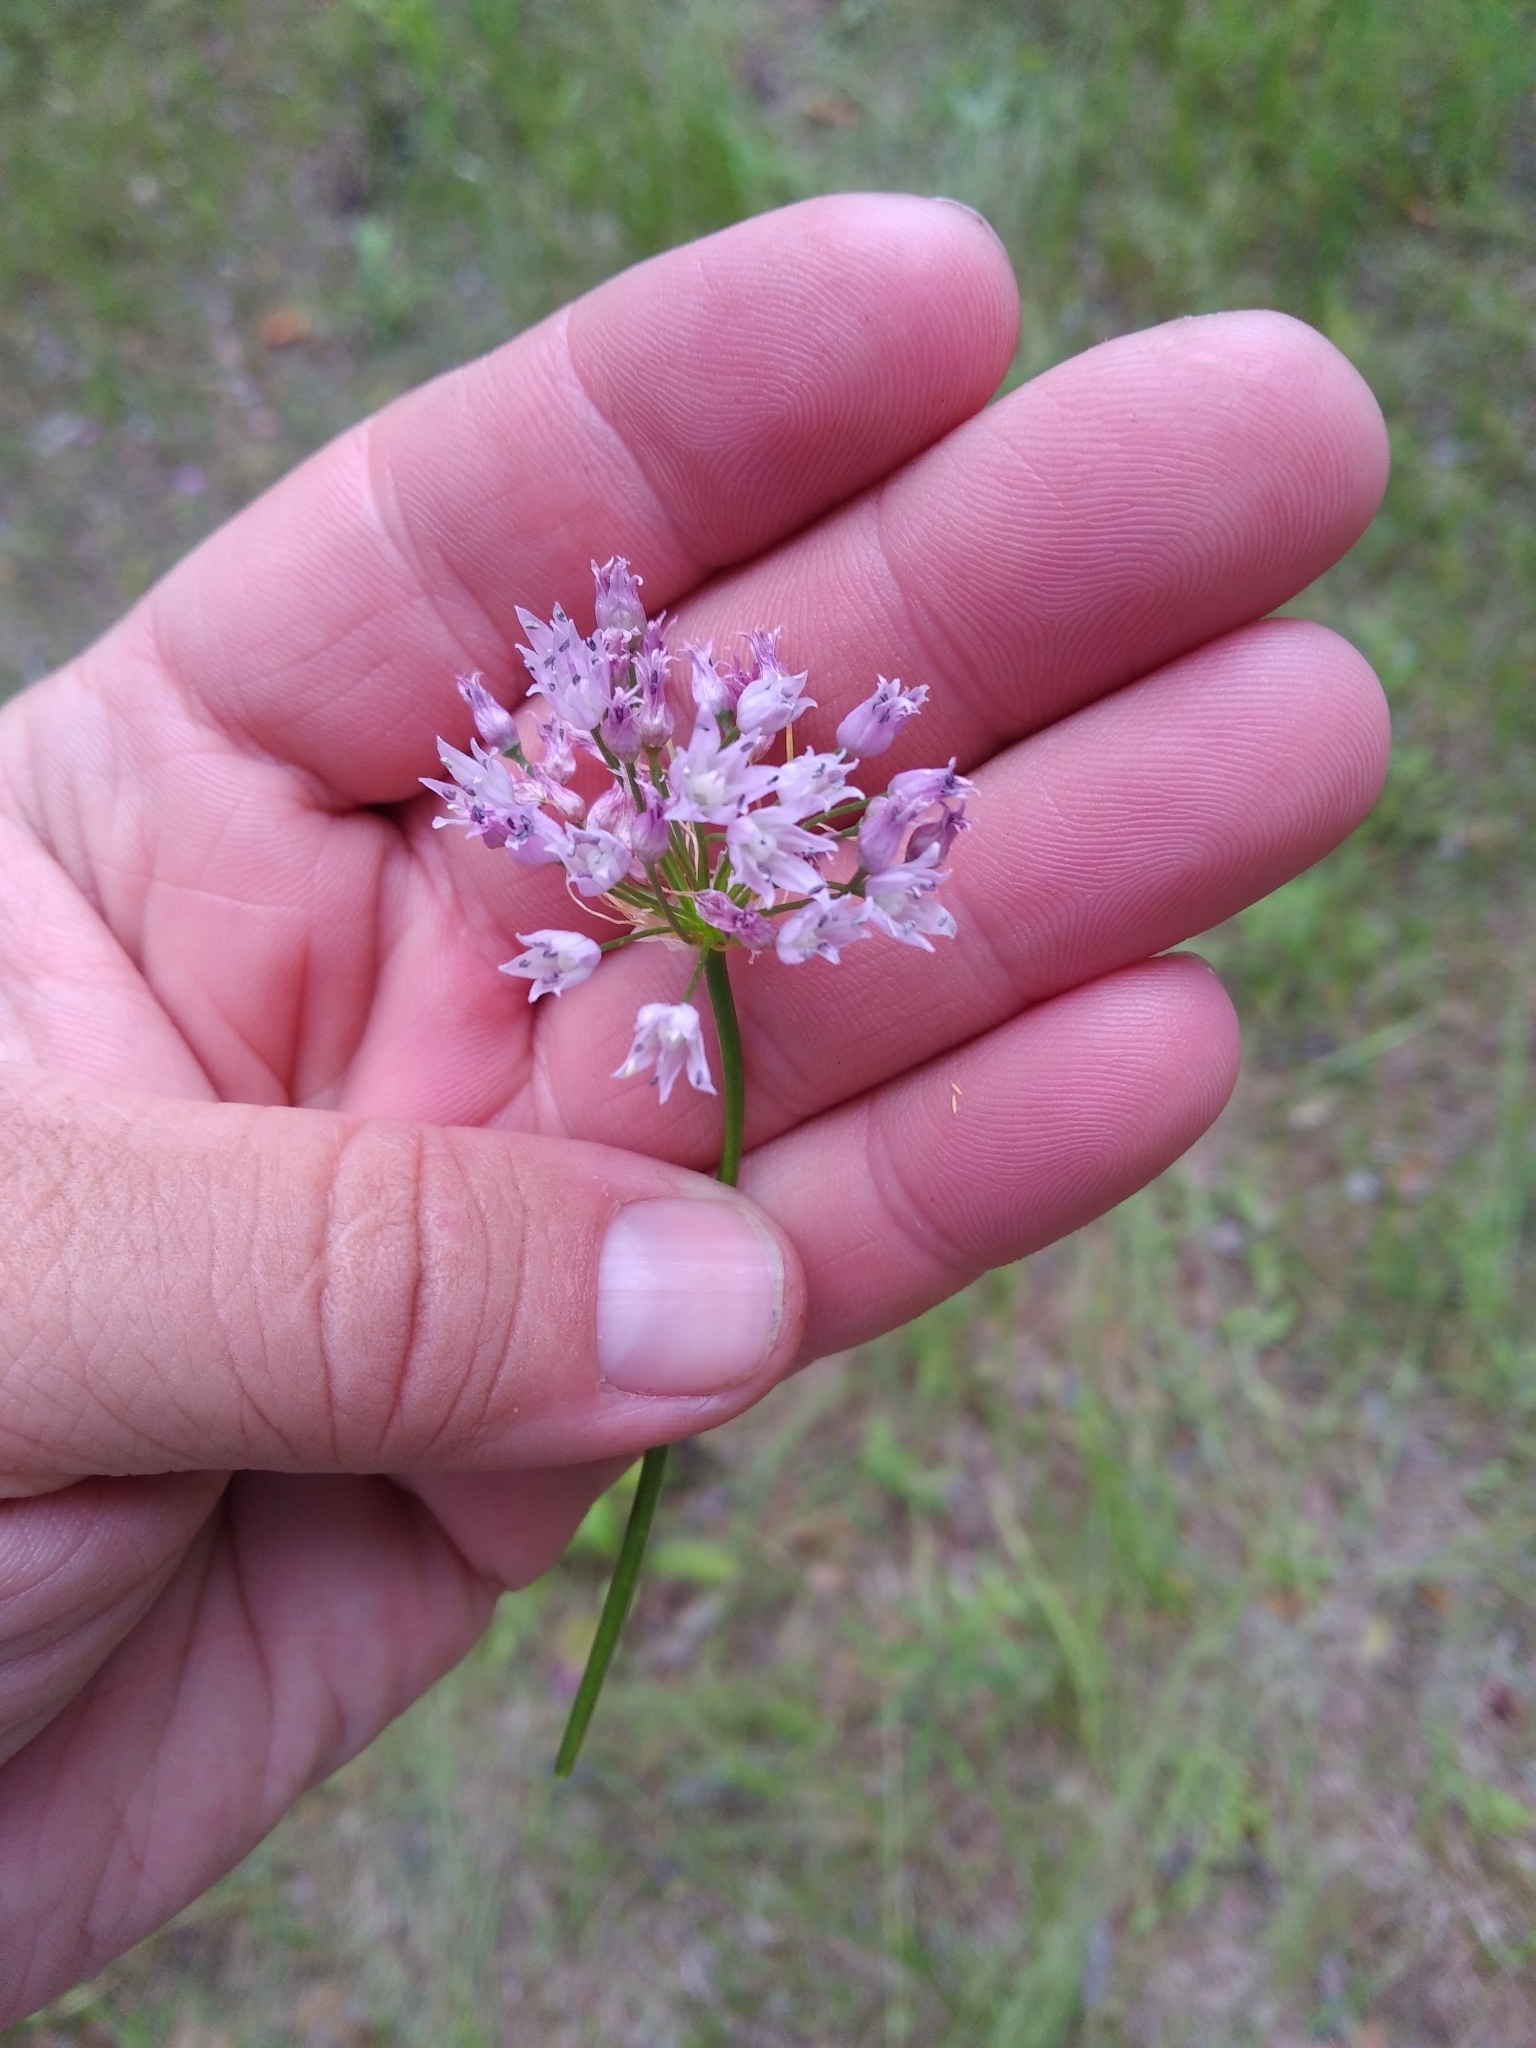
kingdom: Plantae
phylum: Tracheophyta
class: Liliopsida
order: Asparagales
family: Amaryllidaceae
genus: Allium
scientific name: Allium angulosum
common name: Mouse garlic
